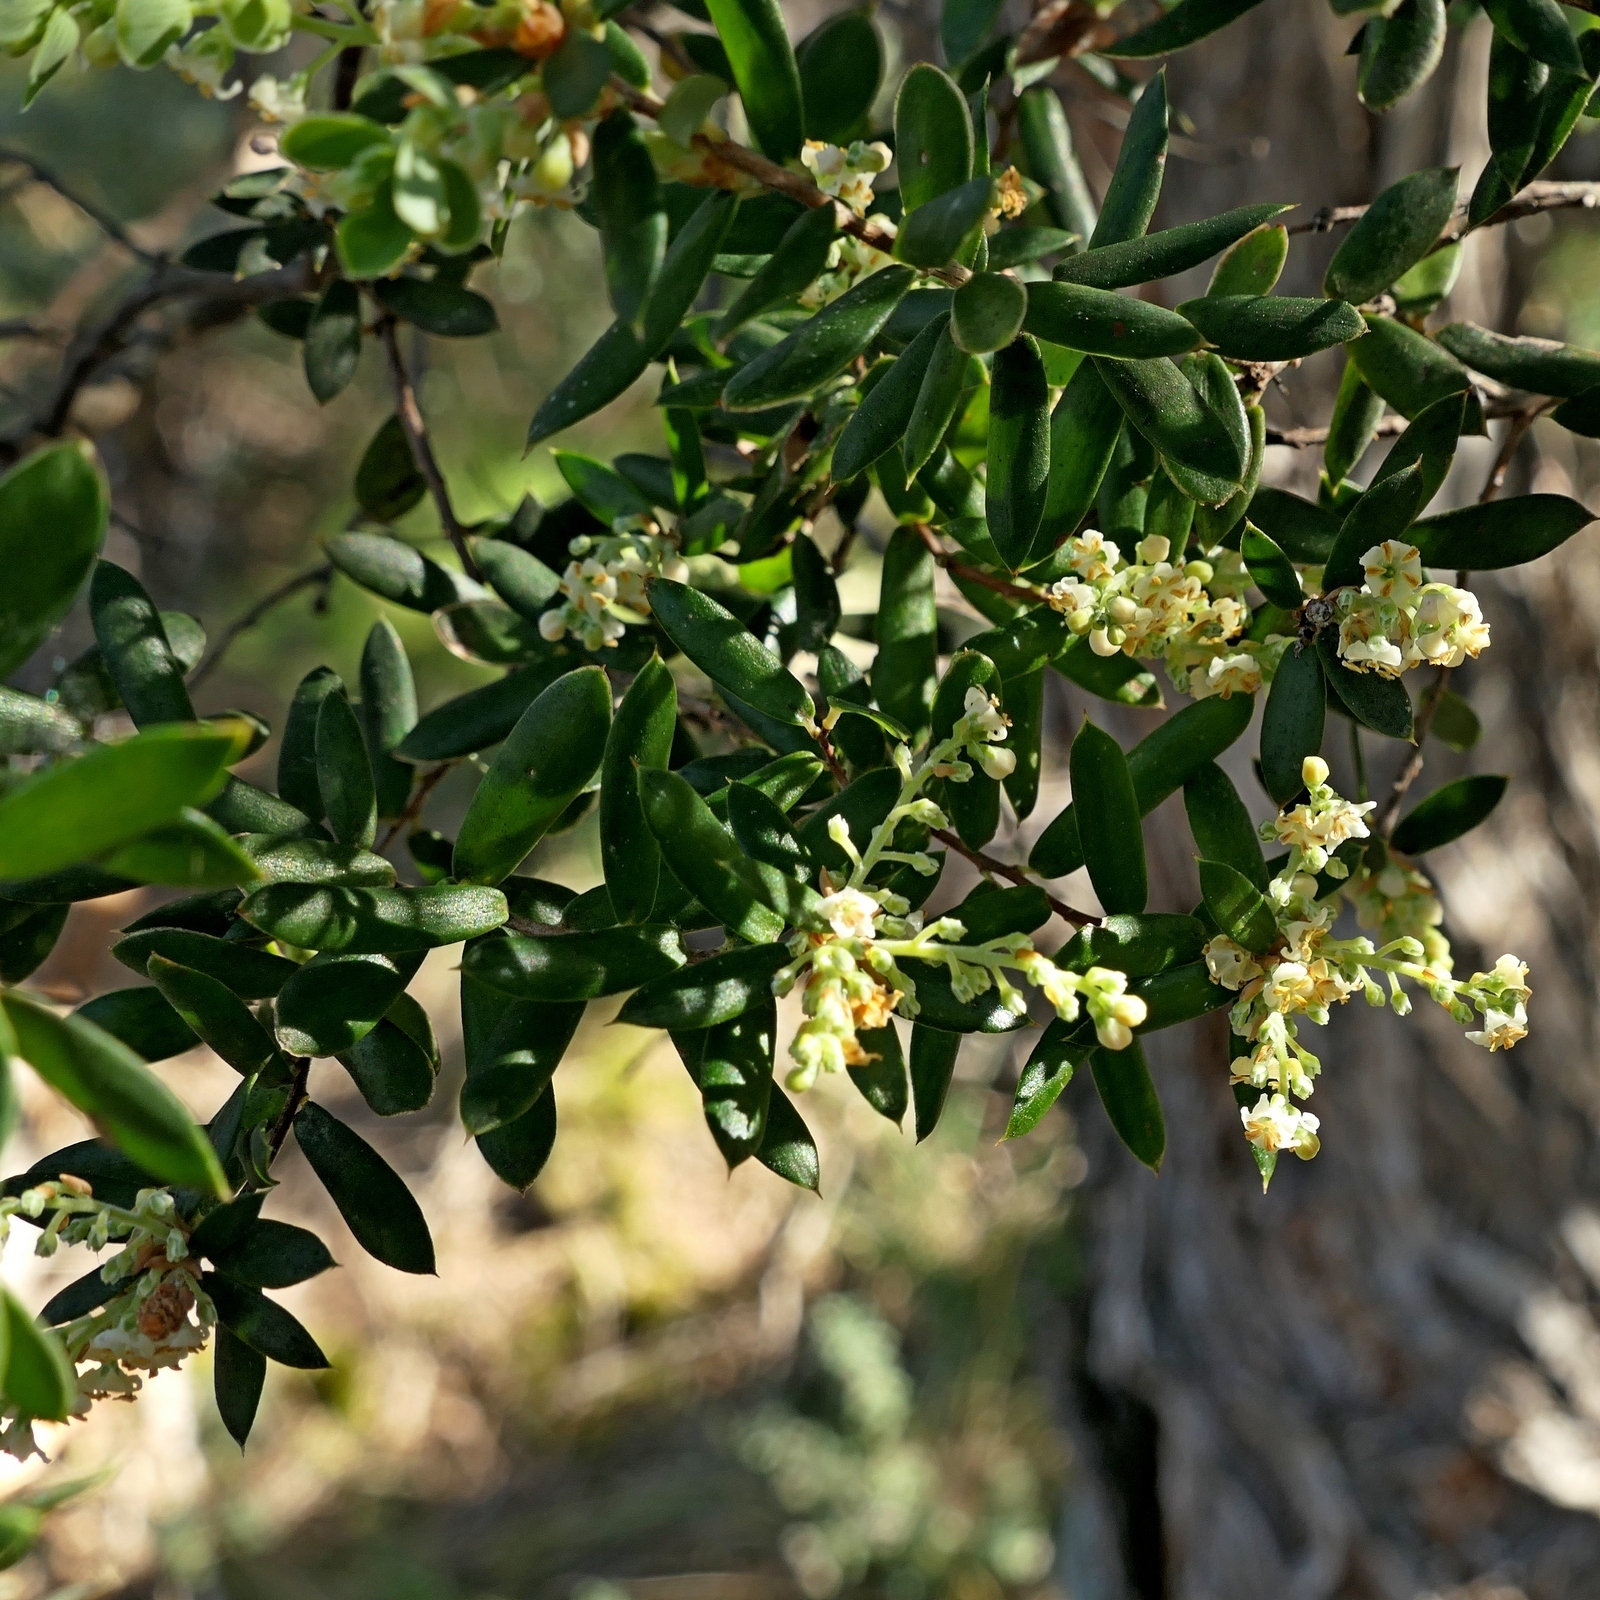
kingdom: Plantae
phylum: Tracheophyta
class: Magnoliopsida
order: Ericales
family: Ericaceae
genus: Monotoca
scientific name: Monotoca elliptica
